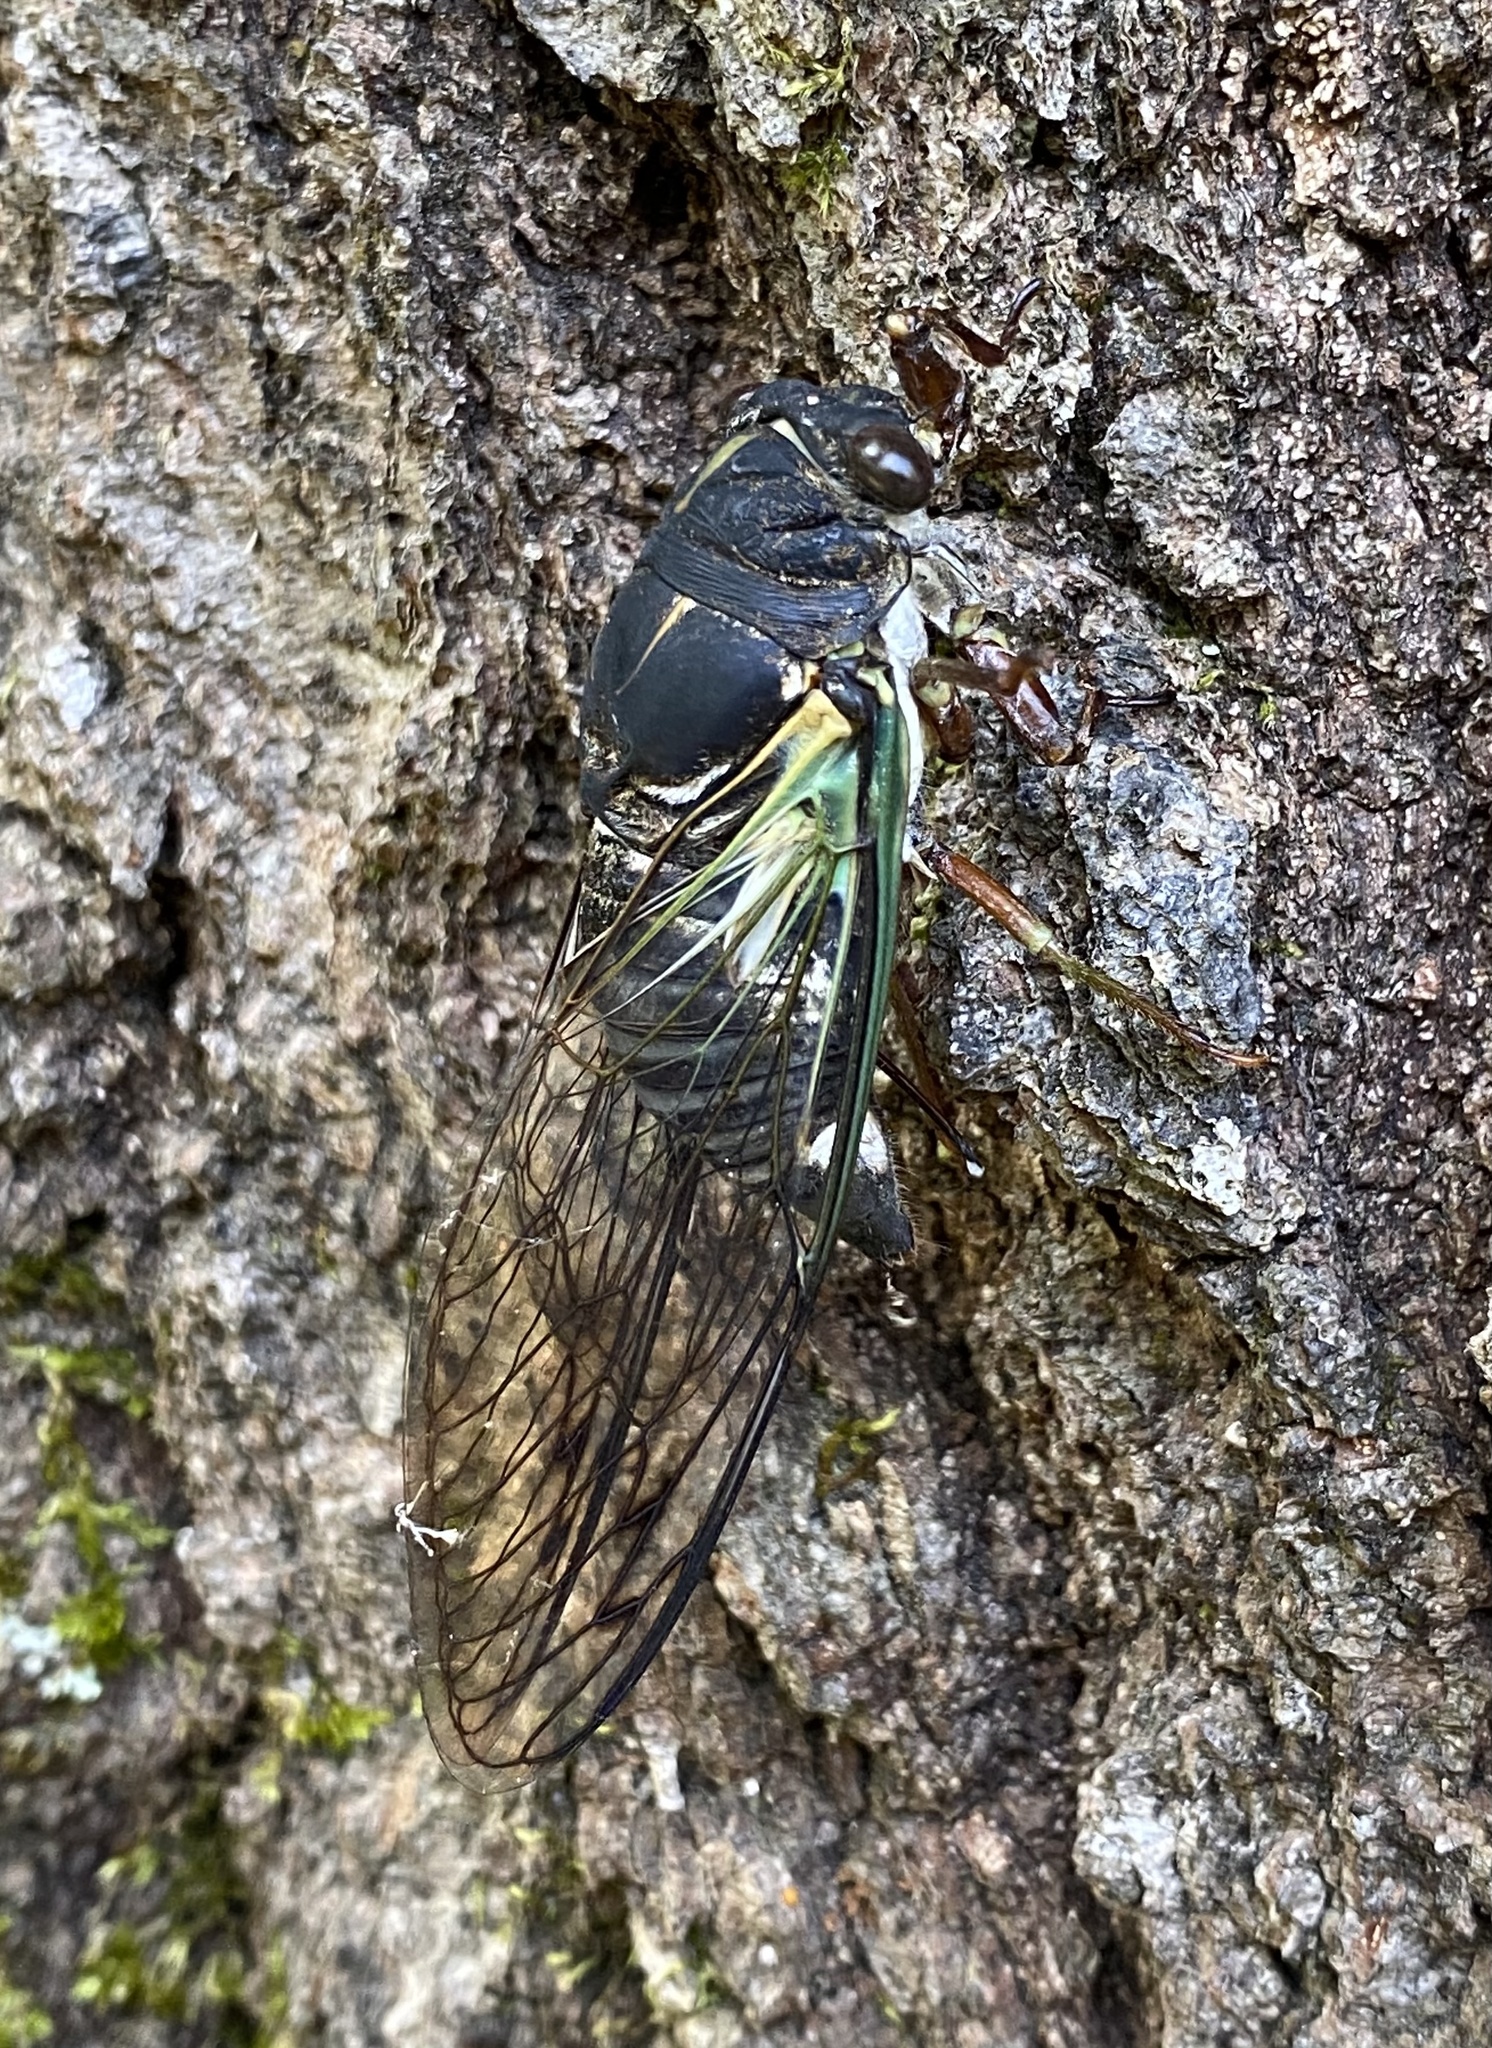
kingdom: Animalia
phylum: Arthropoda
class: Insecta
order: Hemiptera
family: Cicadidae
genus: Neotibicen
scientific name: Neotibicen lyricen
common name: Lyric cicada
